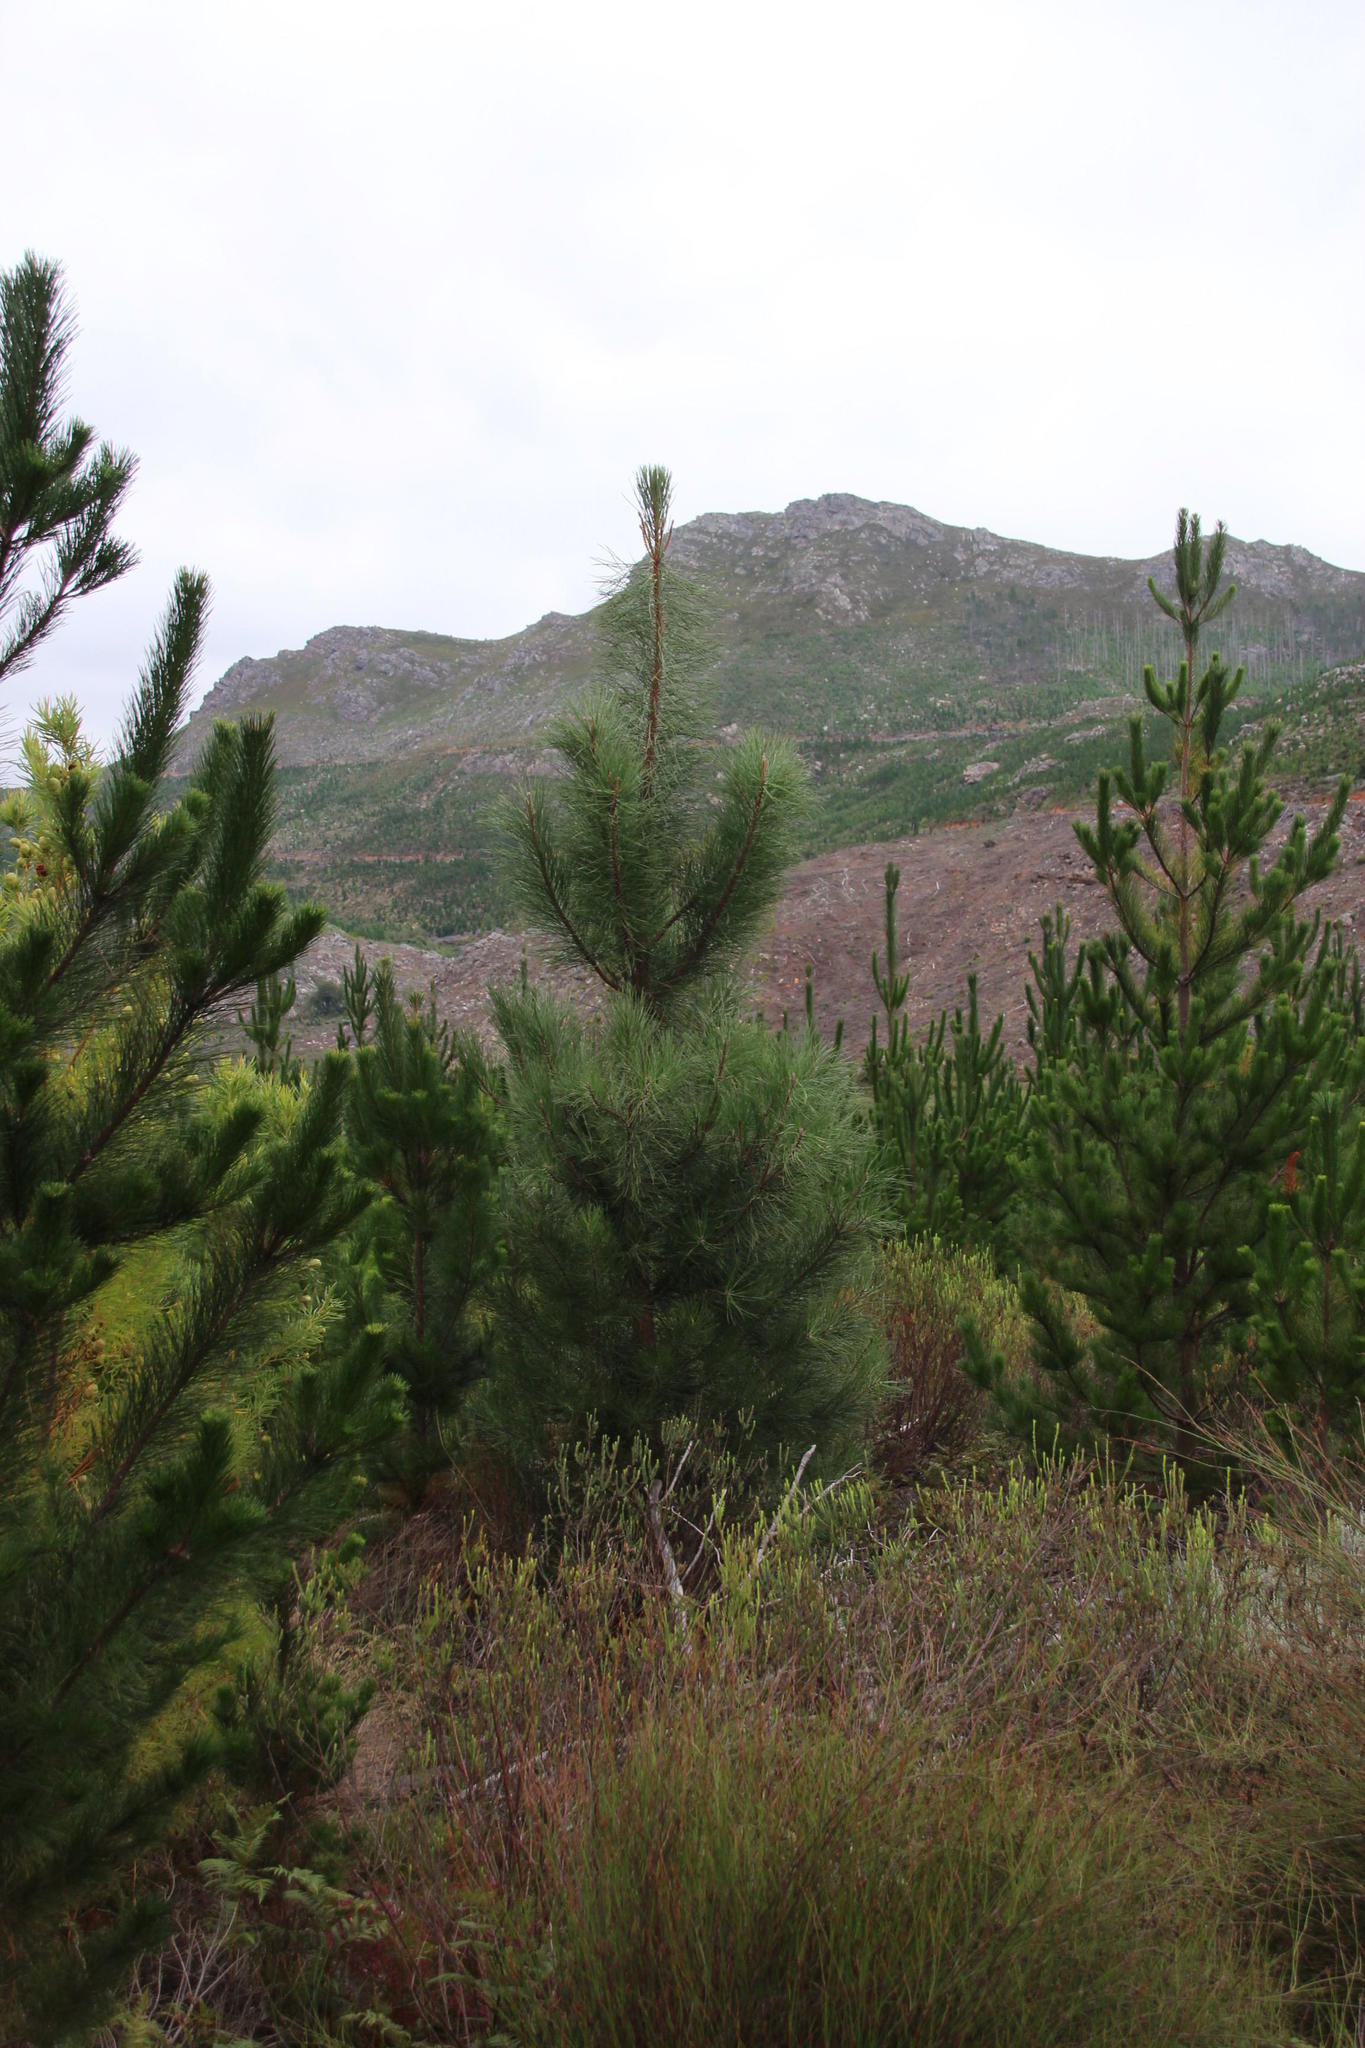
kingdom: Plantae
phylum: Tracheophyta
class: Pinopsida
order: Pinales
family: Pinaceae
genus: Pinus
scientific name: Pinus pinaster
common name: Maritime pine
